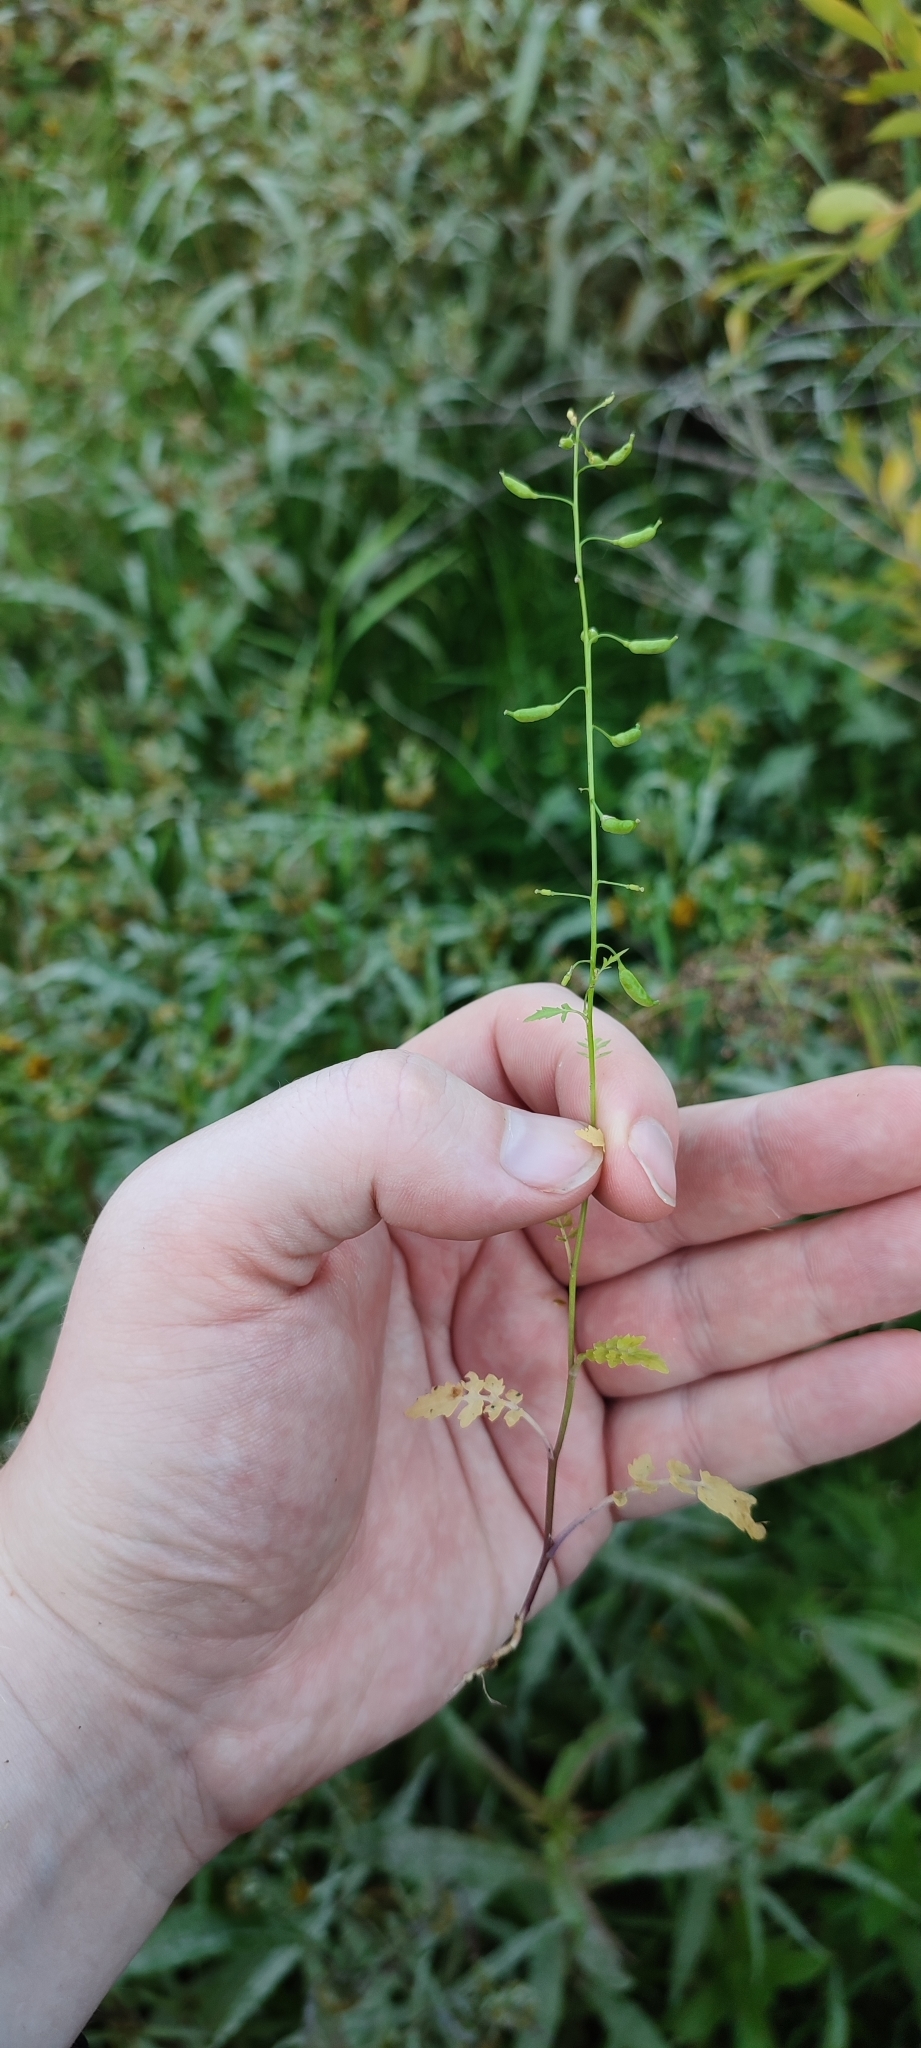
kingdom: Plantae
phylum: Tracheophyta
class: Magnoliopsida
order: Brassicales
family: Brassicaceae
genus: Rorippa
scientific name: Rorippa palustris
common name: Marsh yellow-cress
